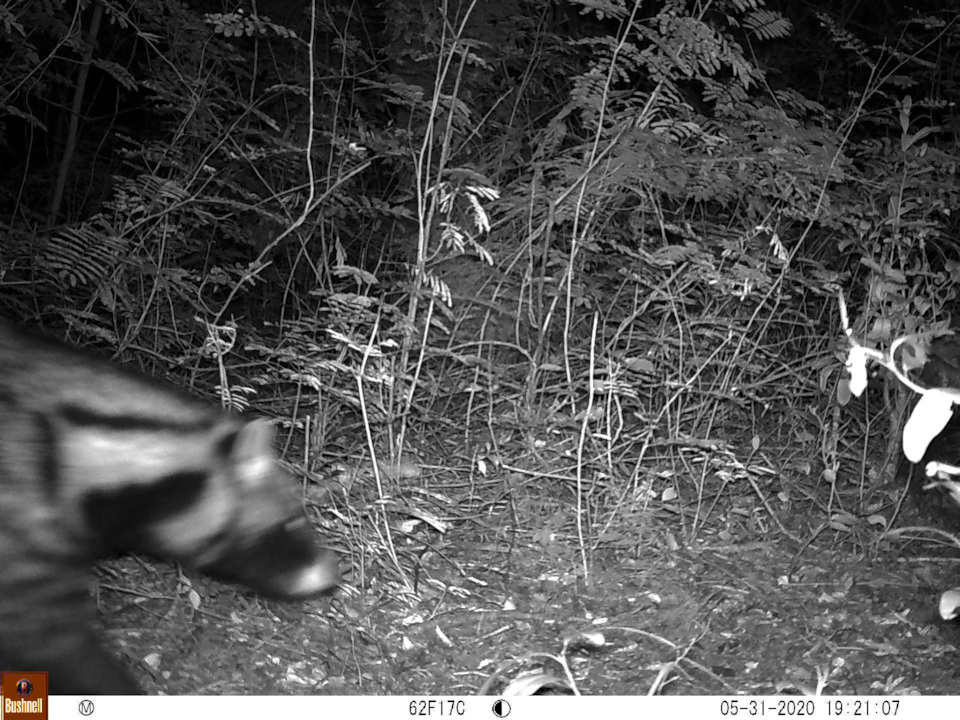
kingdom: Animalia
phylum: Chordata
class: Mammalia
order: Carnivora
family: Viverridae
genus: Civettictis
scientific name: Civettictis civetta
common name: African civet
